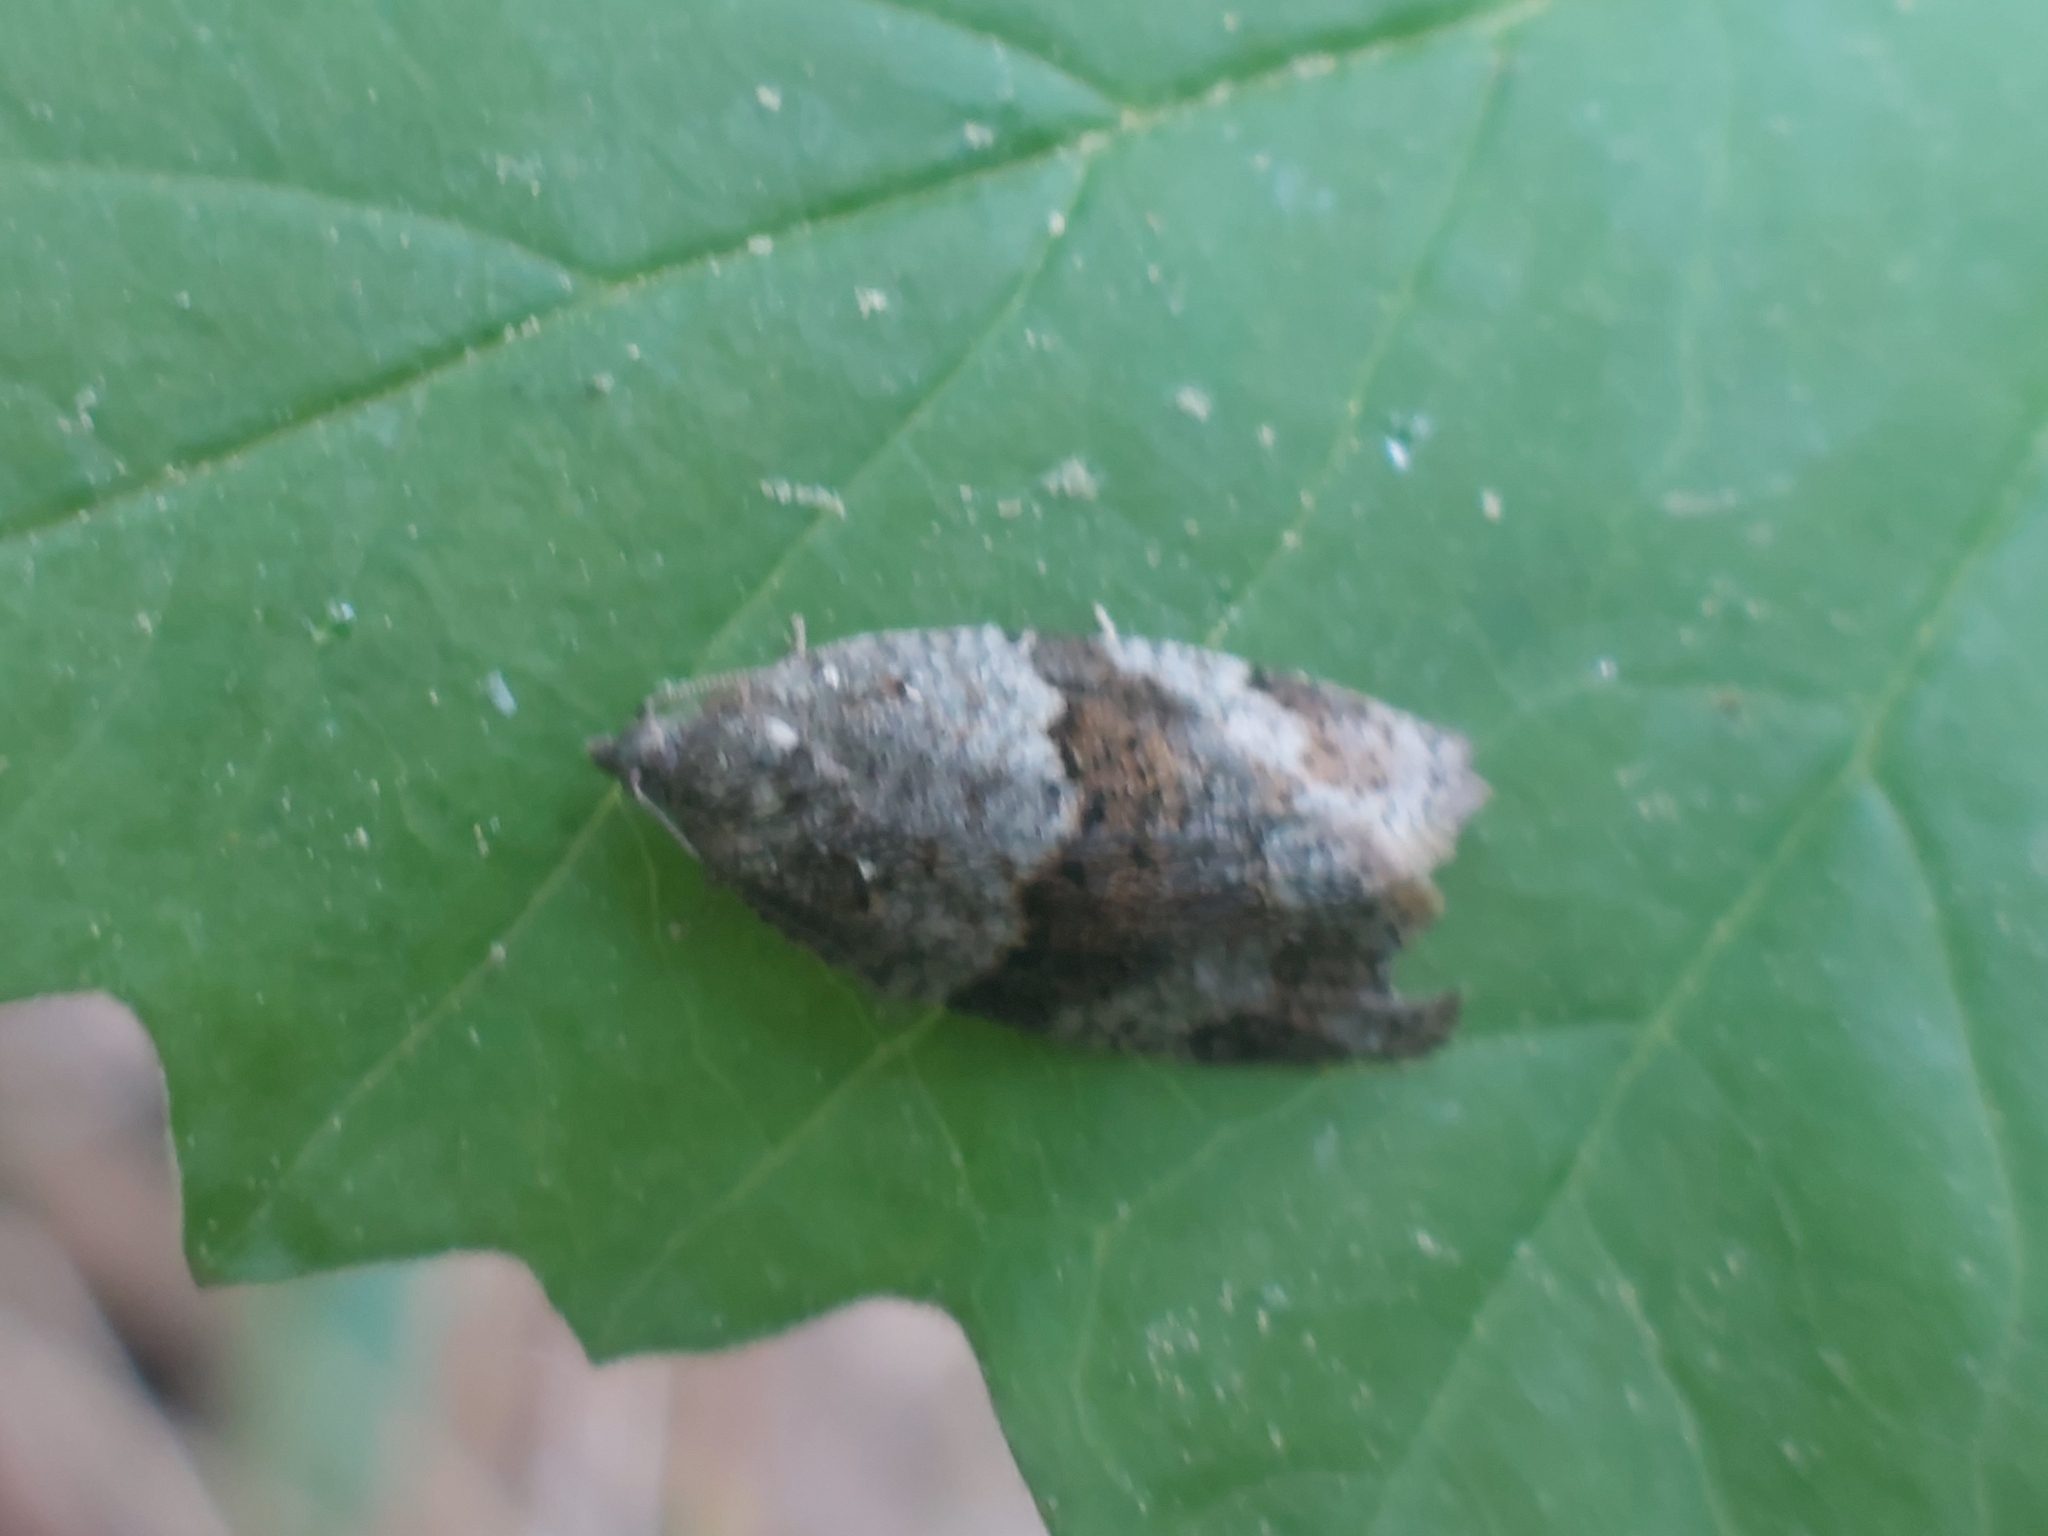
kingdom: Animalia
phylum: Arthropoda
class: Insecta
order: Lepidoptera
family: Tortricidae
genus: Syndemis
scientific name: Syndemis musculana
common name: Dark-barred twist
